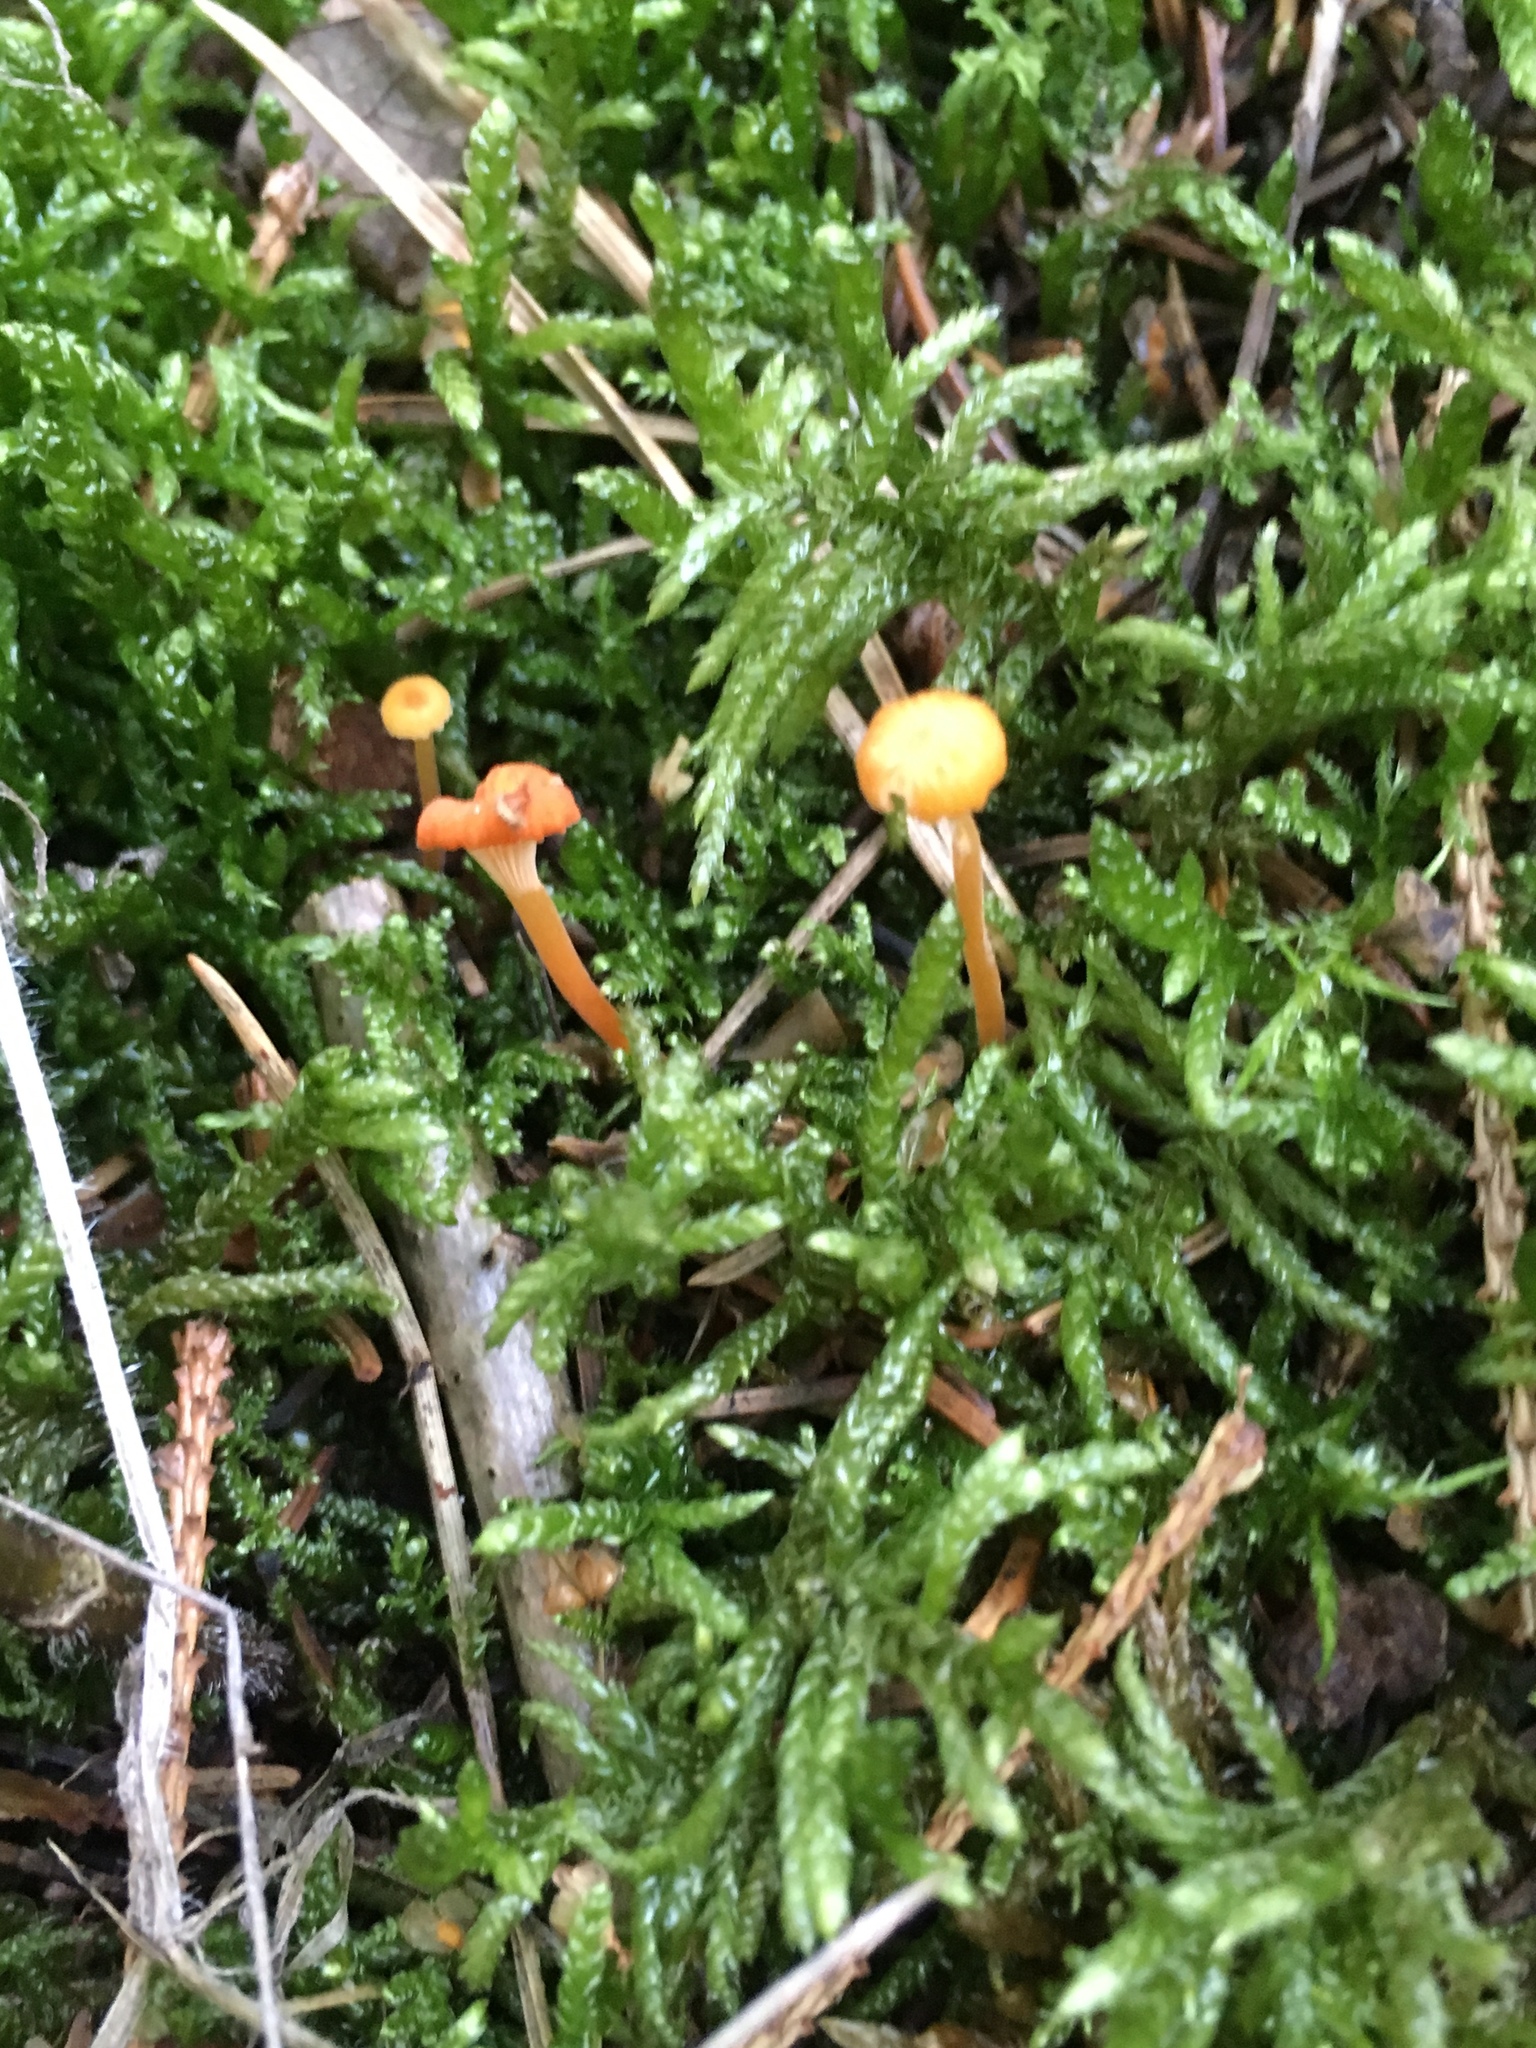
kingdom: Fungi
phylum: Basidiomycota
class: Agaricomycetes
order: Hymenochaetales
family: Rickenellaceae
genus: Rickenella
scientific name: Rickenella fibula
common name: Orange mosscap
